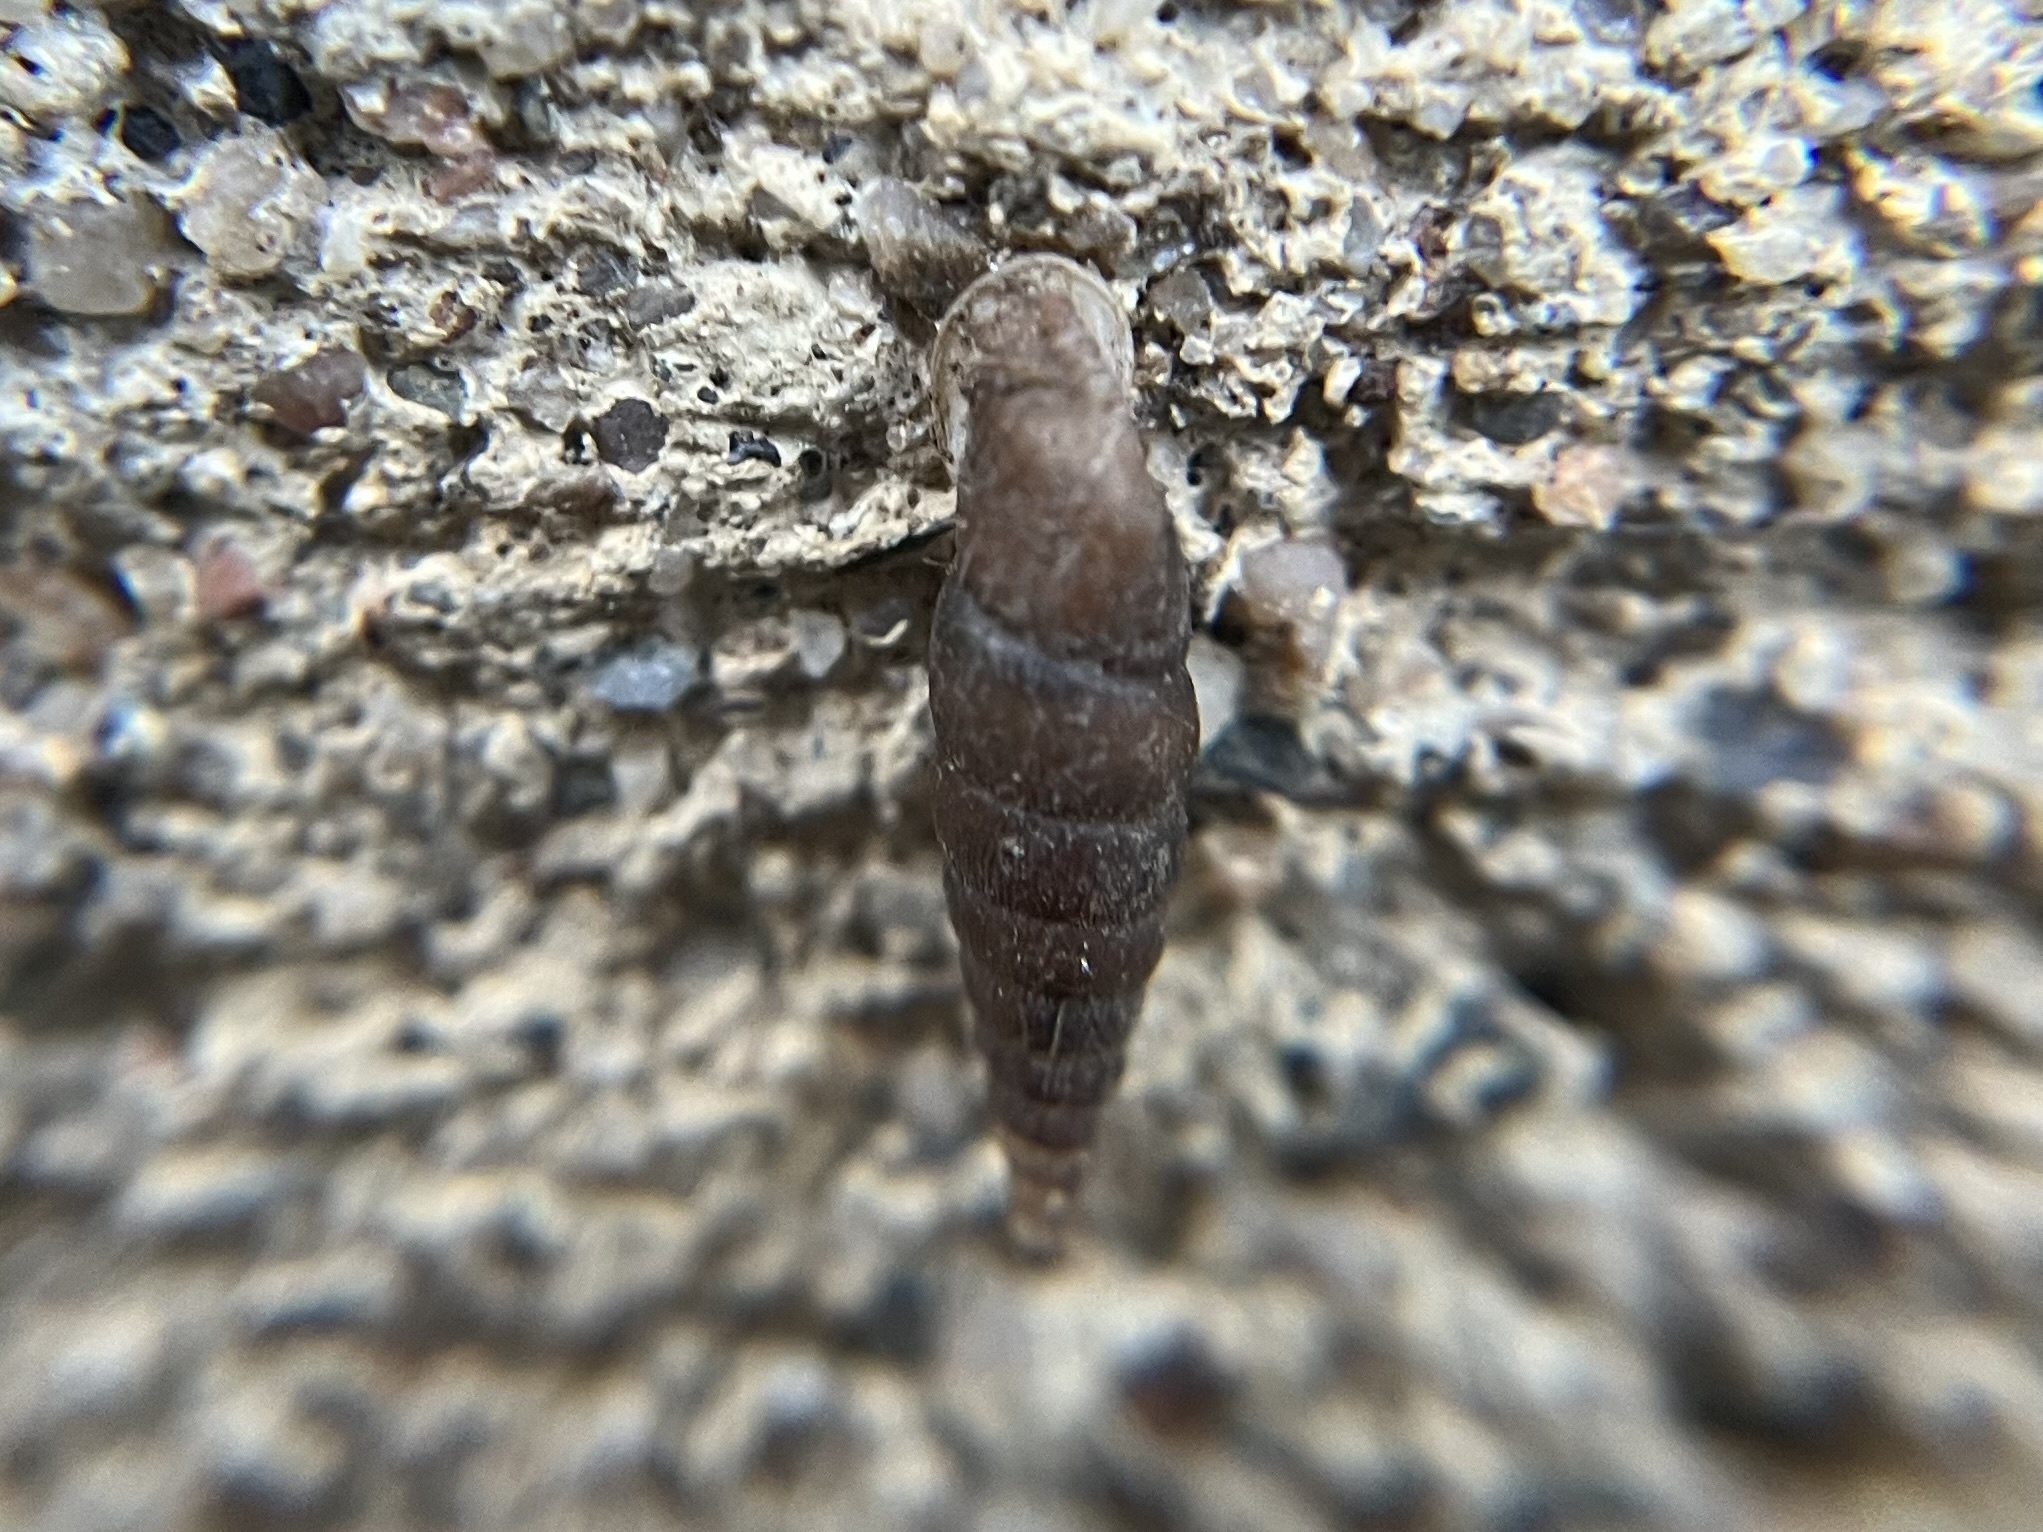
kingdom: Animalia
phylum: Mollusca
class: Gastropoda
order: Stylommatophora
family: Clausiliidae
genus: Alinda
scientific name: Alinda biplicata
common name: Thames door snail
